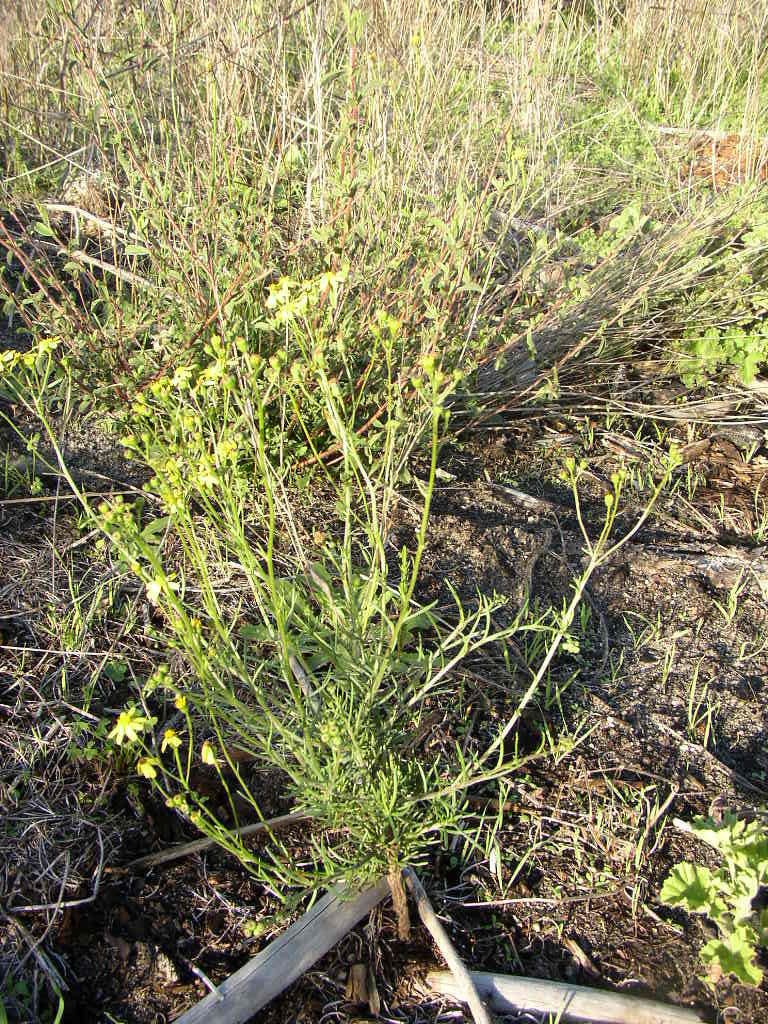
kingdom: Plantae
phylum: Tracheophyta
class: Magnoliopsida
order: Asterales
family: Asteraceae
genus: Senecio
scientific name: Senecio burchellii
